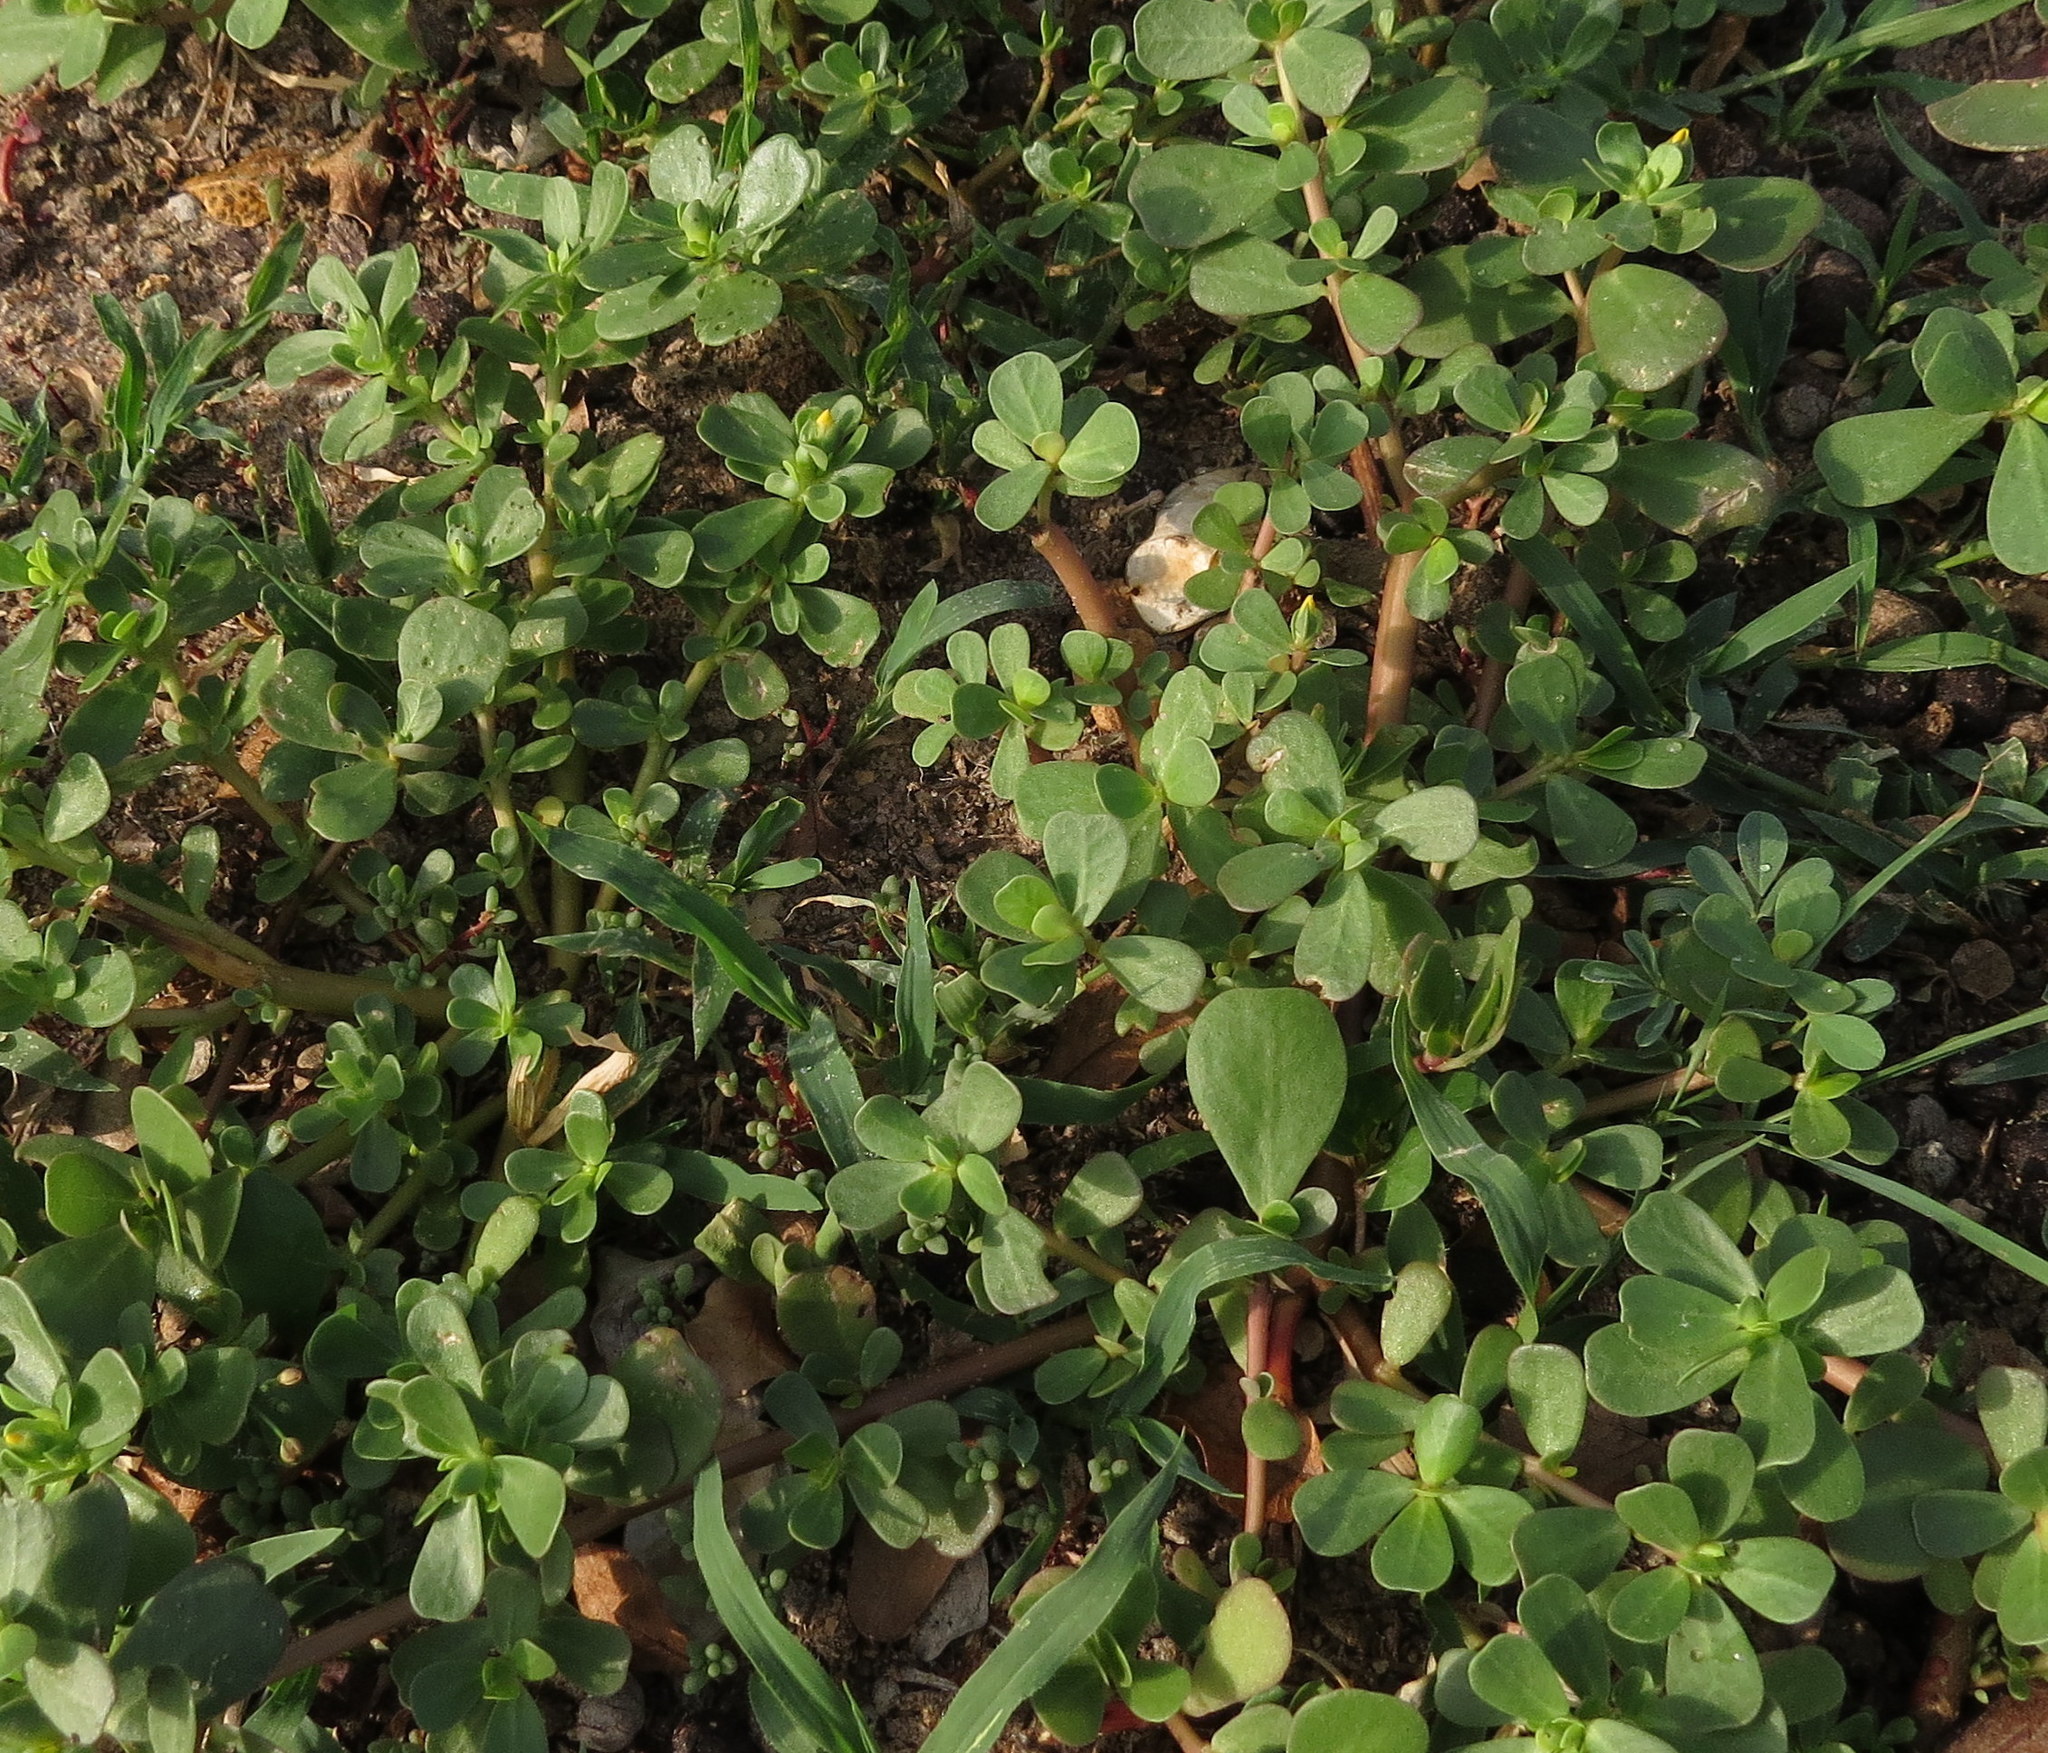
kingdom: Plantae
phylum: Tracheophyta
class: Magnoliopsida
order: Caryophyllales
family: Portulacaceae
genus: Portulaca
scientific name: Portulaca oleracea
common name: Common purslane
